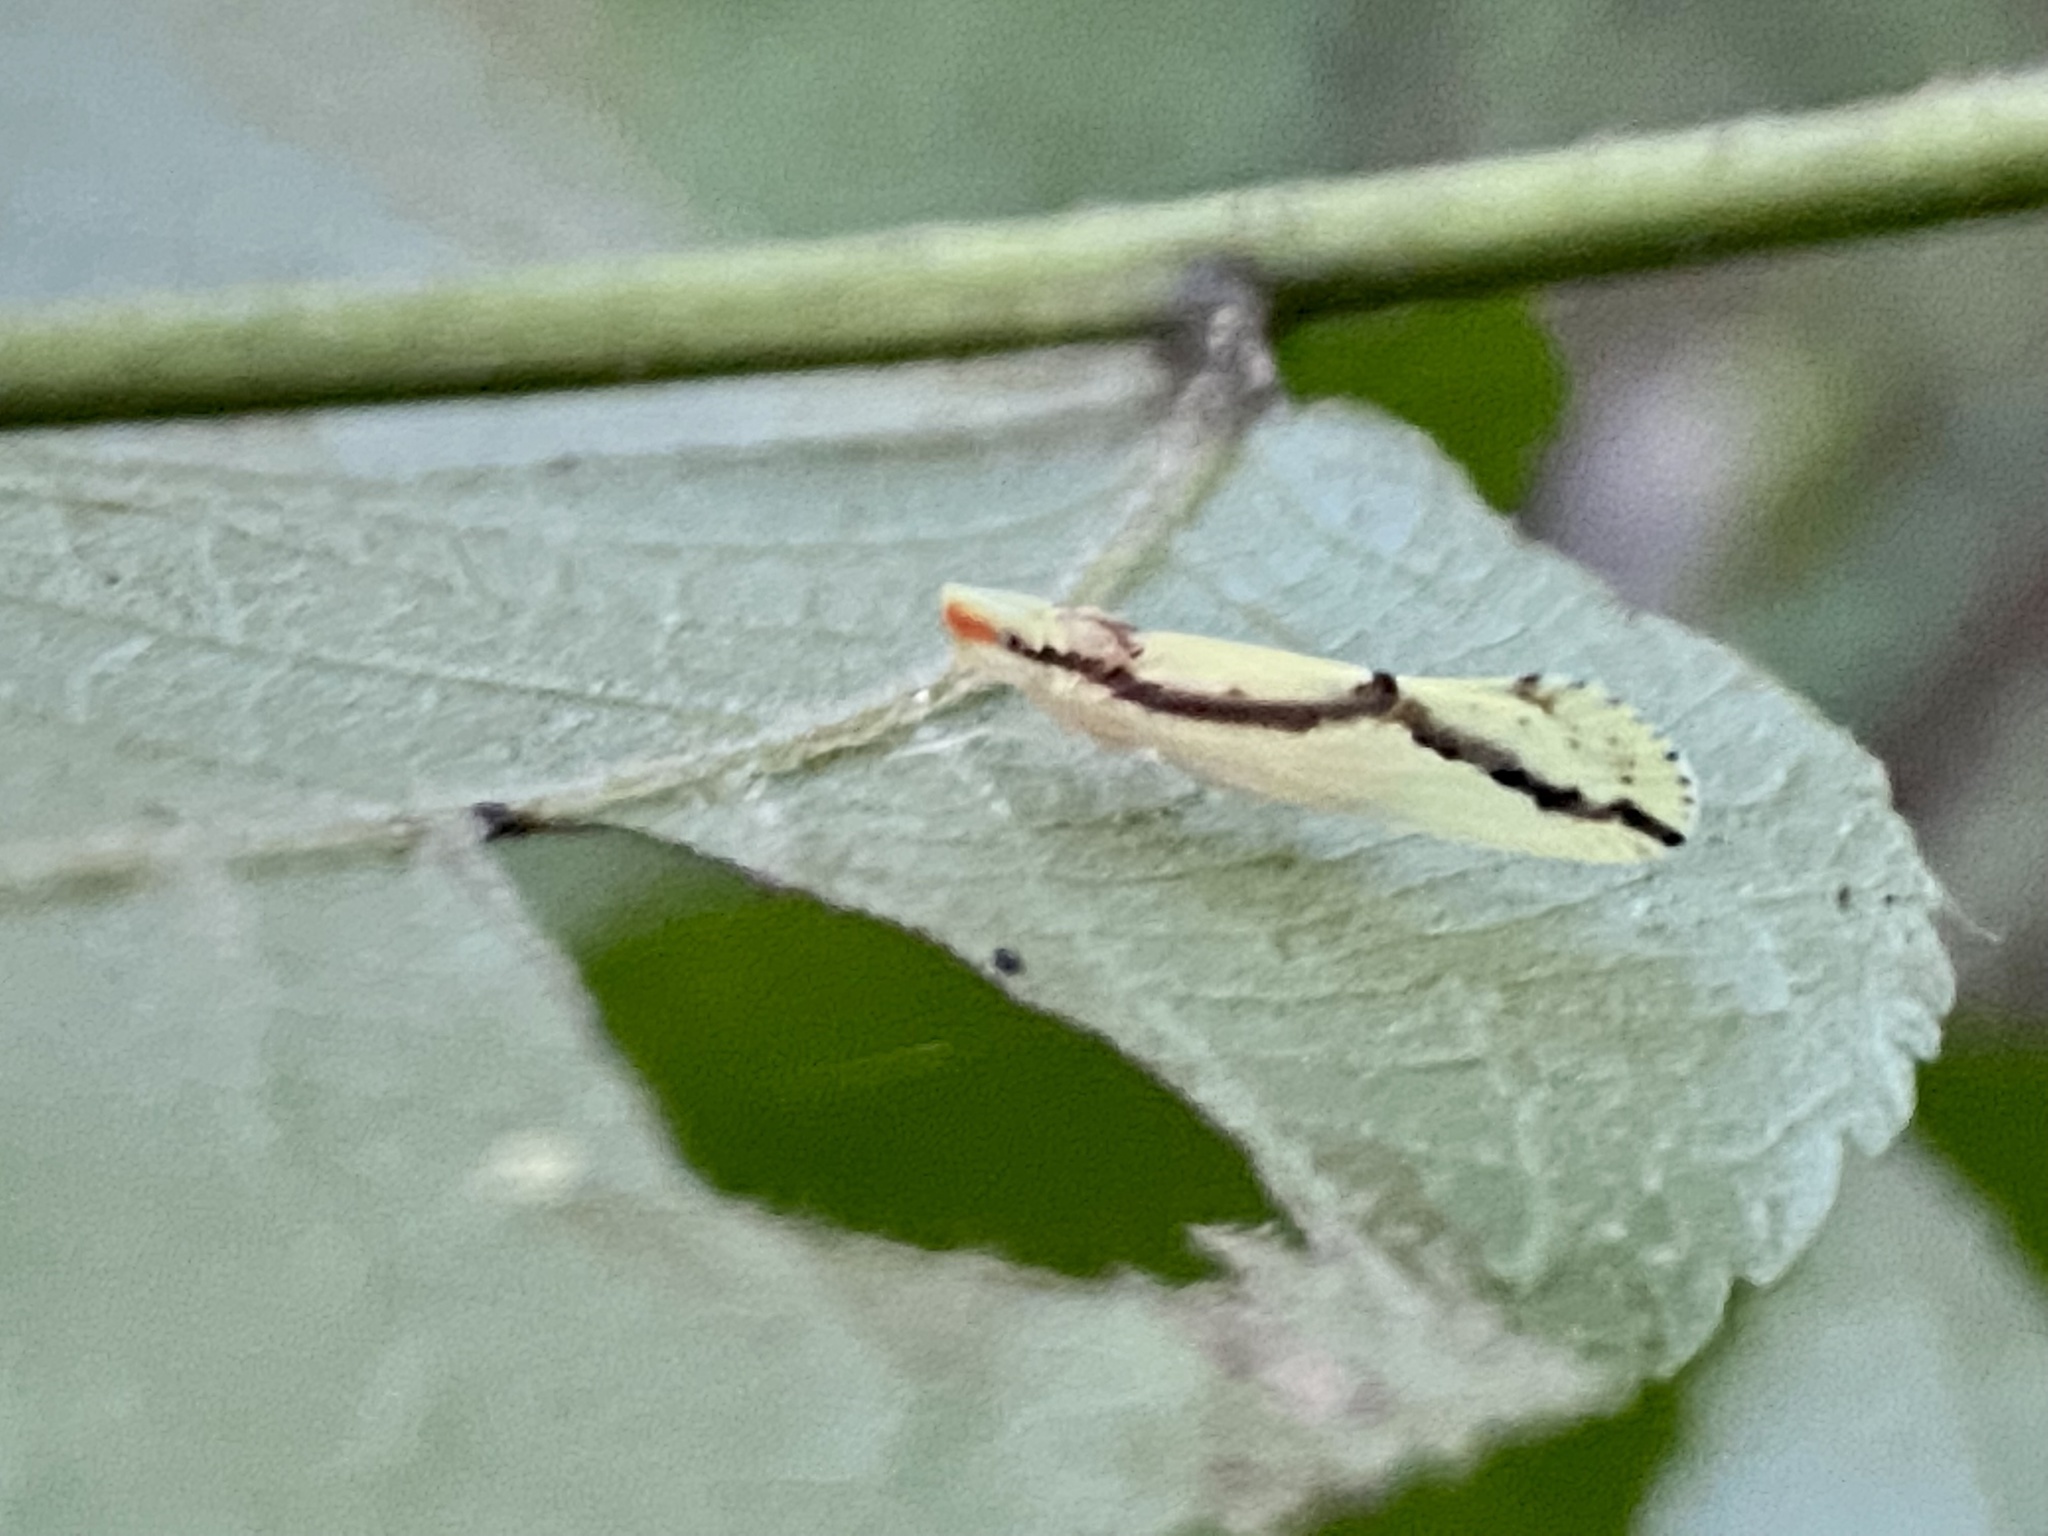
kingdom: Animalia
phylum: Arthropoda
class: Insecta
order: Hemiptera
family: Derbidae
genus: Otiocerus
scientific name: Otiocerus amyotii
